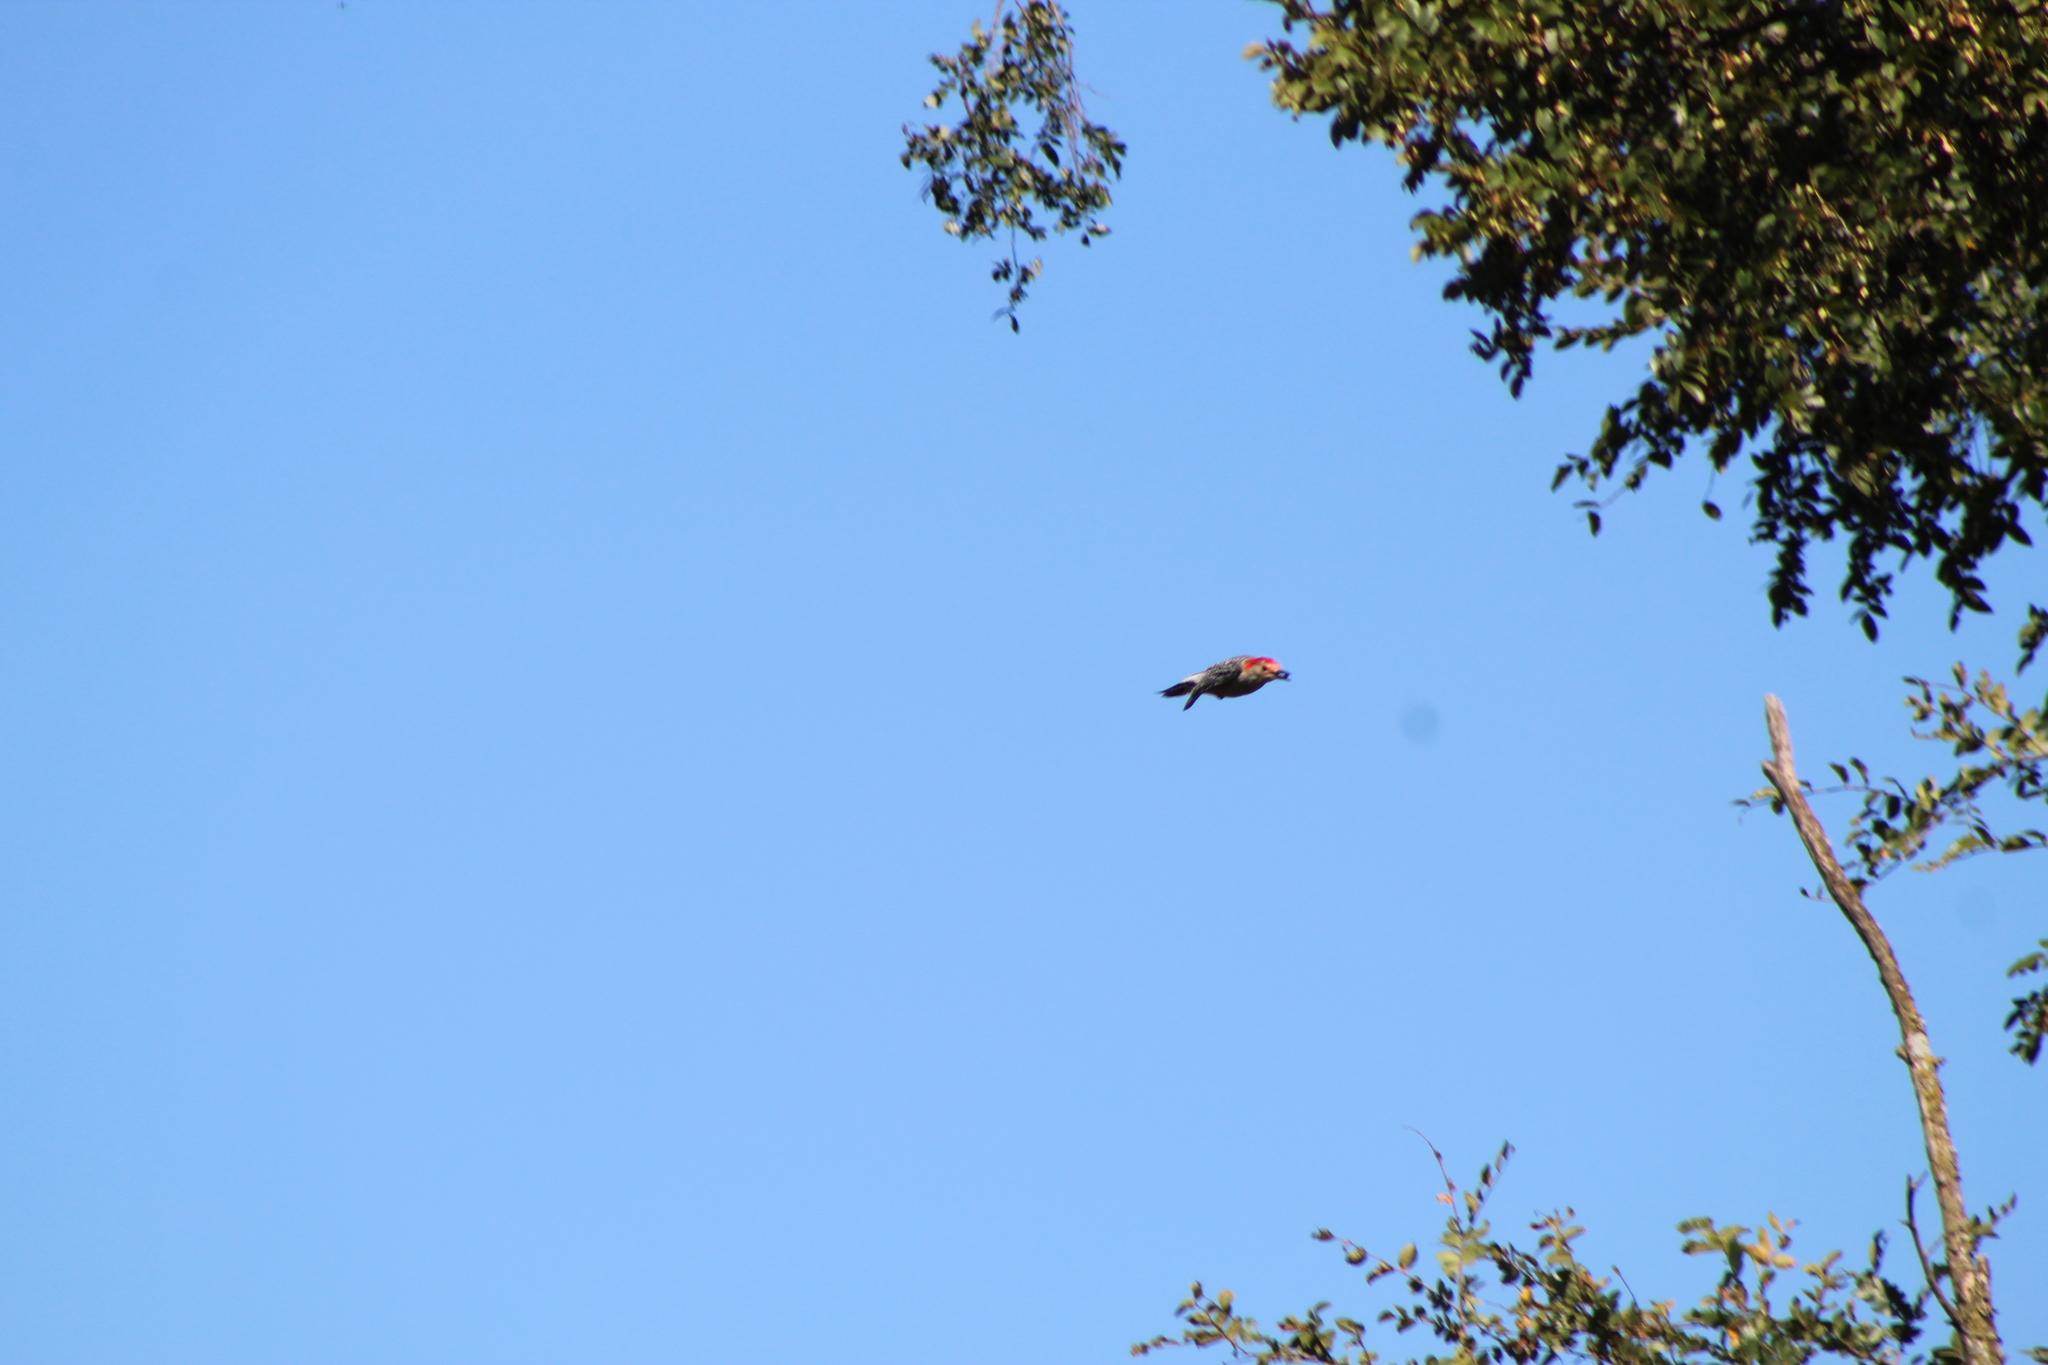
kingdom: Animalia
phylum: Chordata
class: Aves
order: Piciformes
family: Picidae
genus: Melanerpes
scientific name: Melanerpes carolinus
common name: Red-bellied woodpecker
